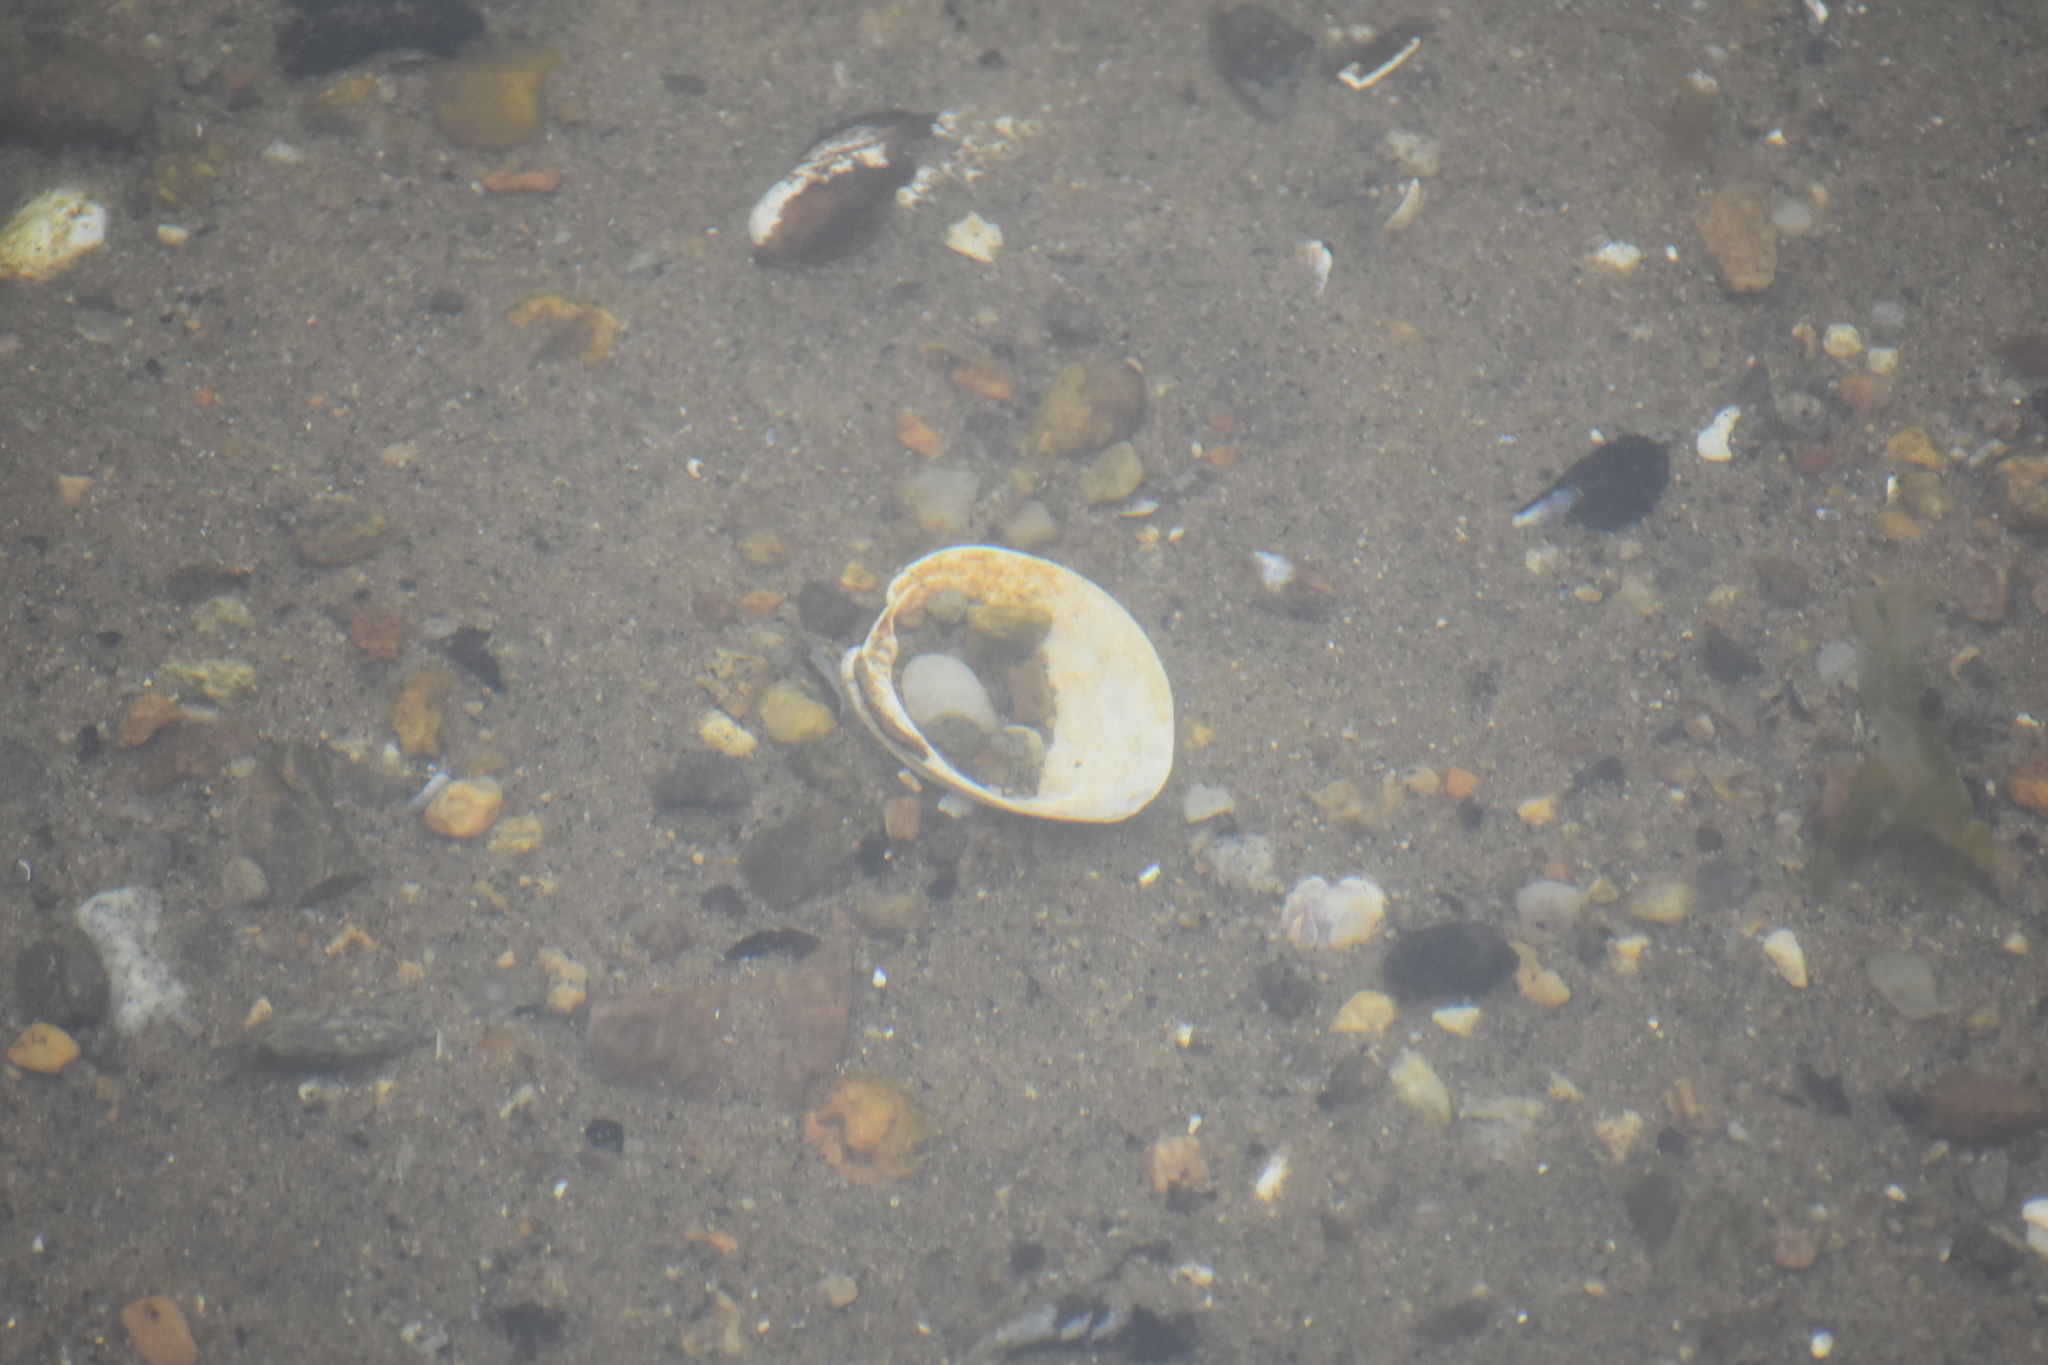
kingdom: Animalia
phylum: Mollusca
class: Bivalvia
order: Venerida
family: Veneridae
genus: Mercenaria
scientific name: Mercenaria mercenaria
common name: American hard-shelled clam
